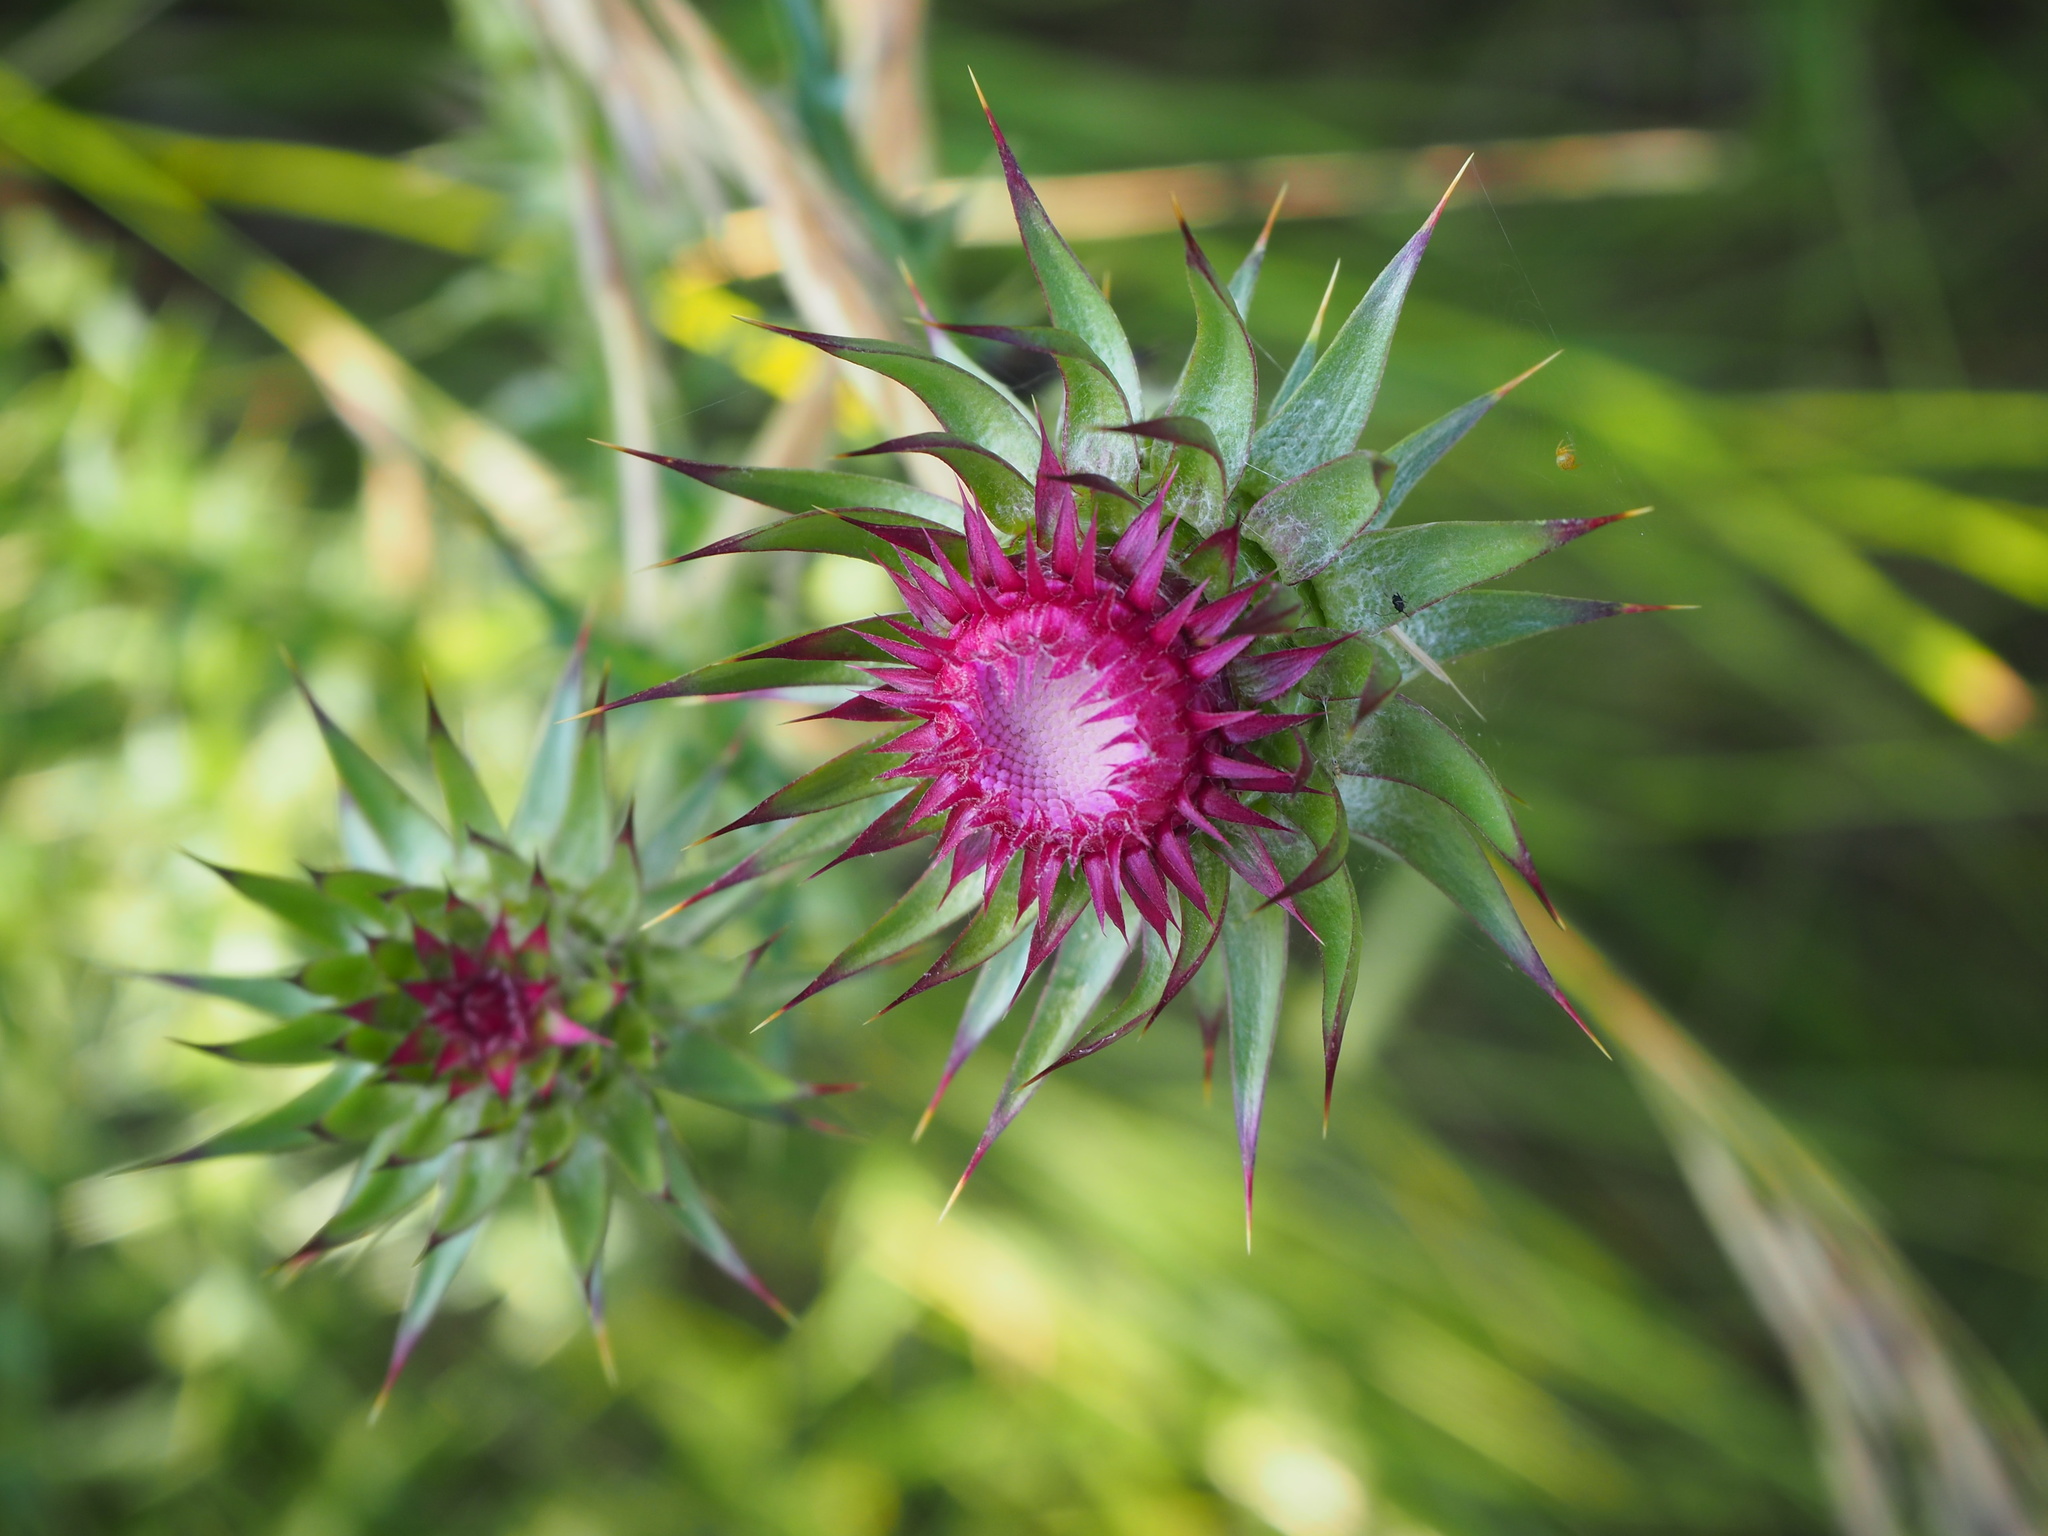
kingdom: Plantae
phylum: Tracheophyta
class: Magnoliopsida
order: Asterales
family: Asteraceae
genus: Carduus
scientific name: Carduus nutans
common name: Musk thistle
